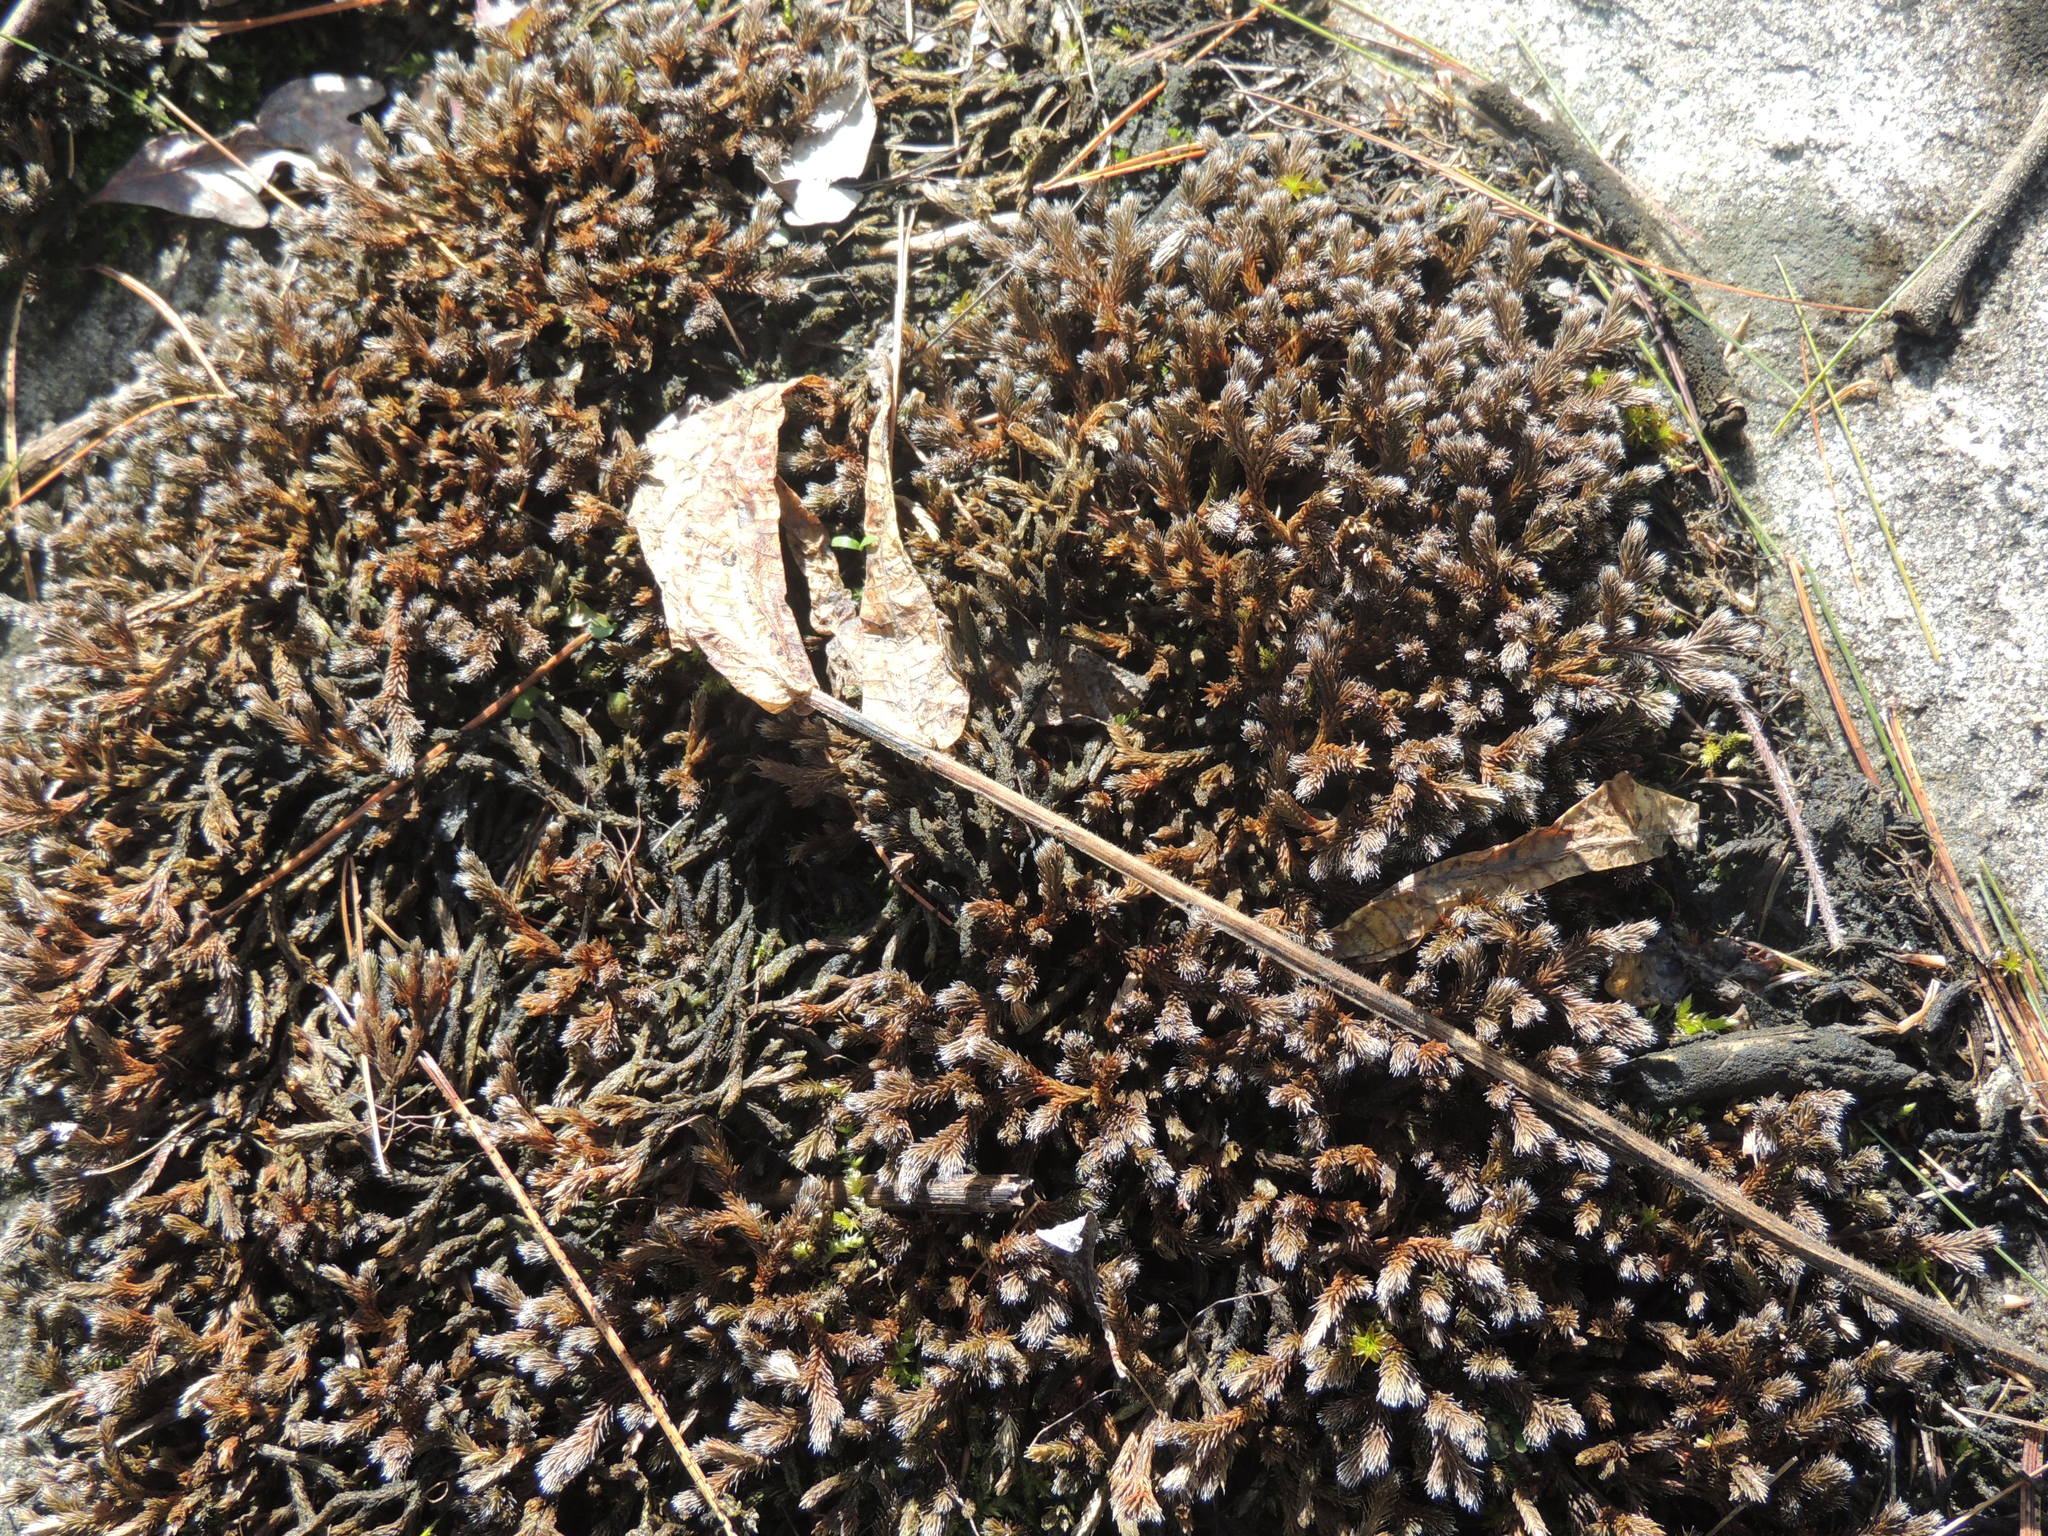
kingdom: Plantae
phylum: Tracheophyta
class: Lycopodiopsida
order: Selaginellales
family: Selaginellaceae
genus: Selaginella
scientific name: Selaginella rupestris
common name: Dwarf spikemoss
